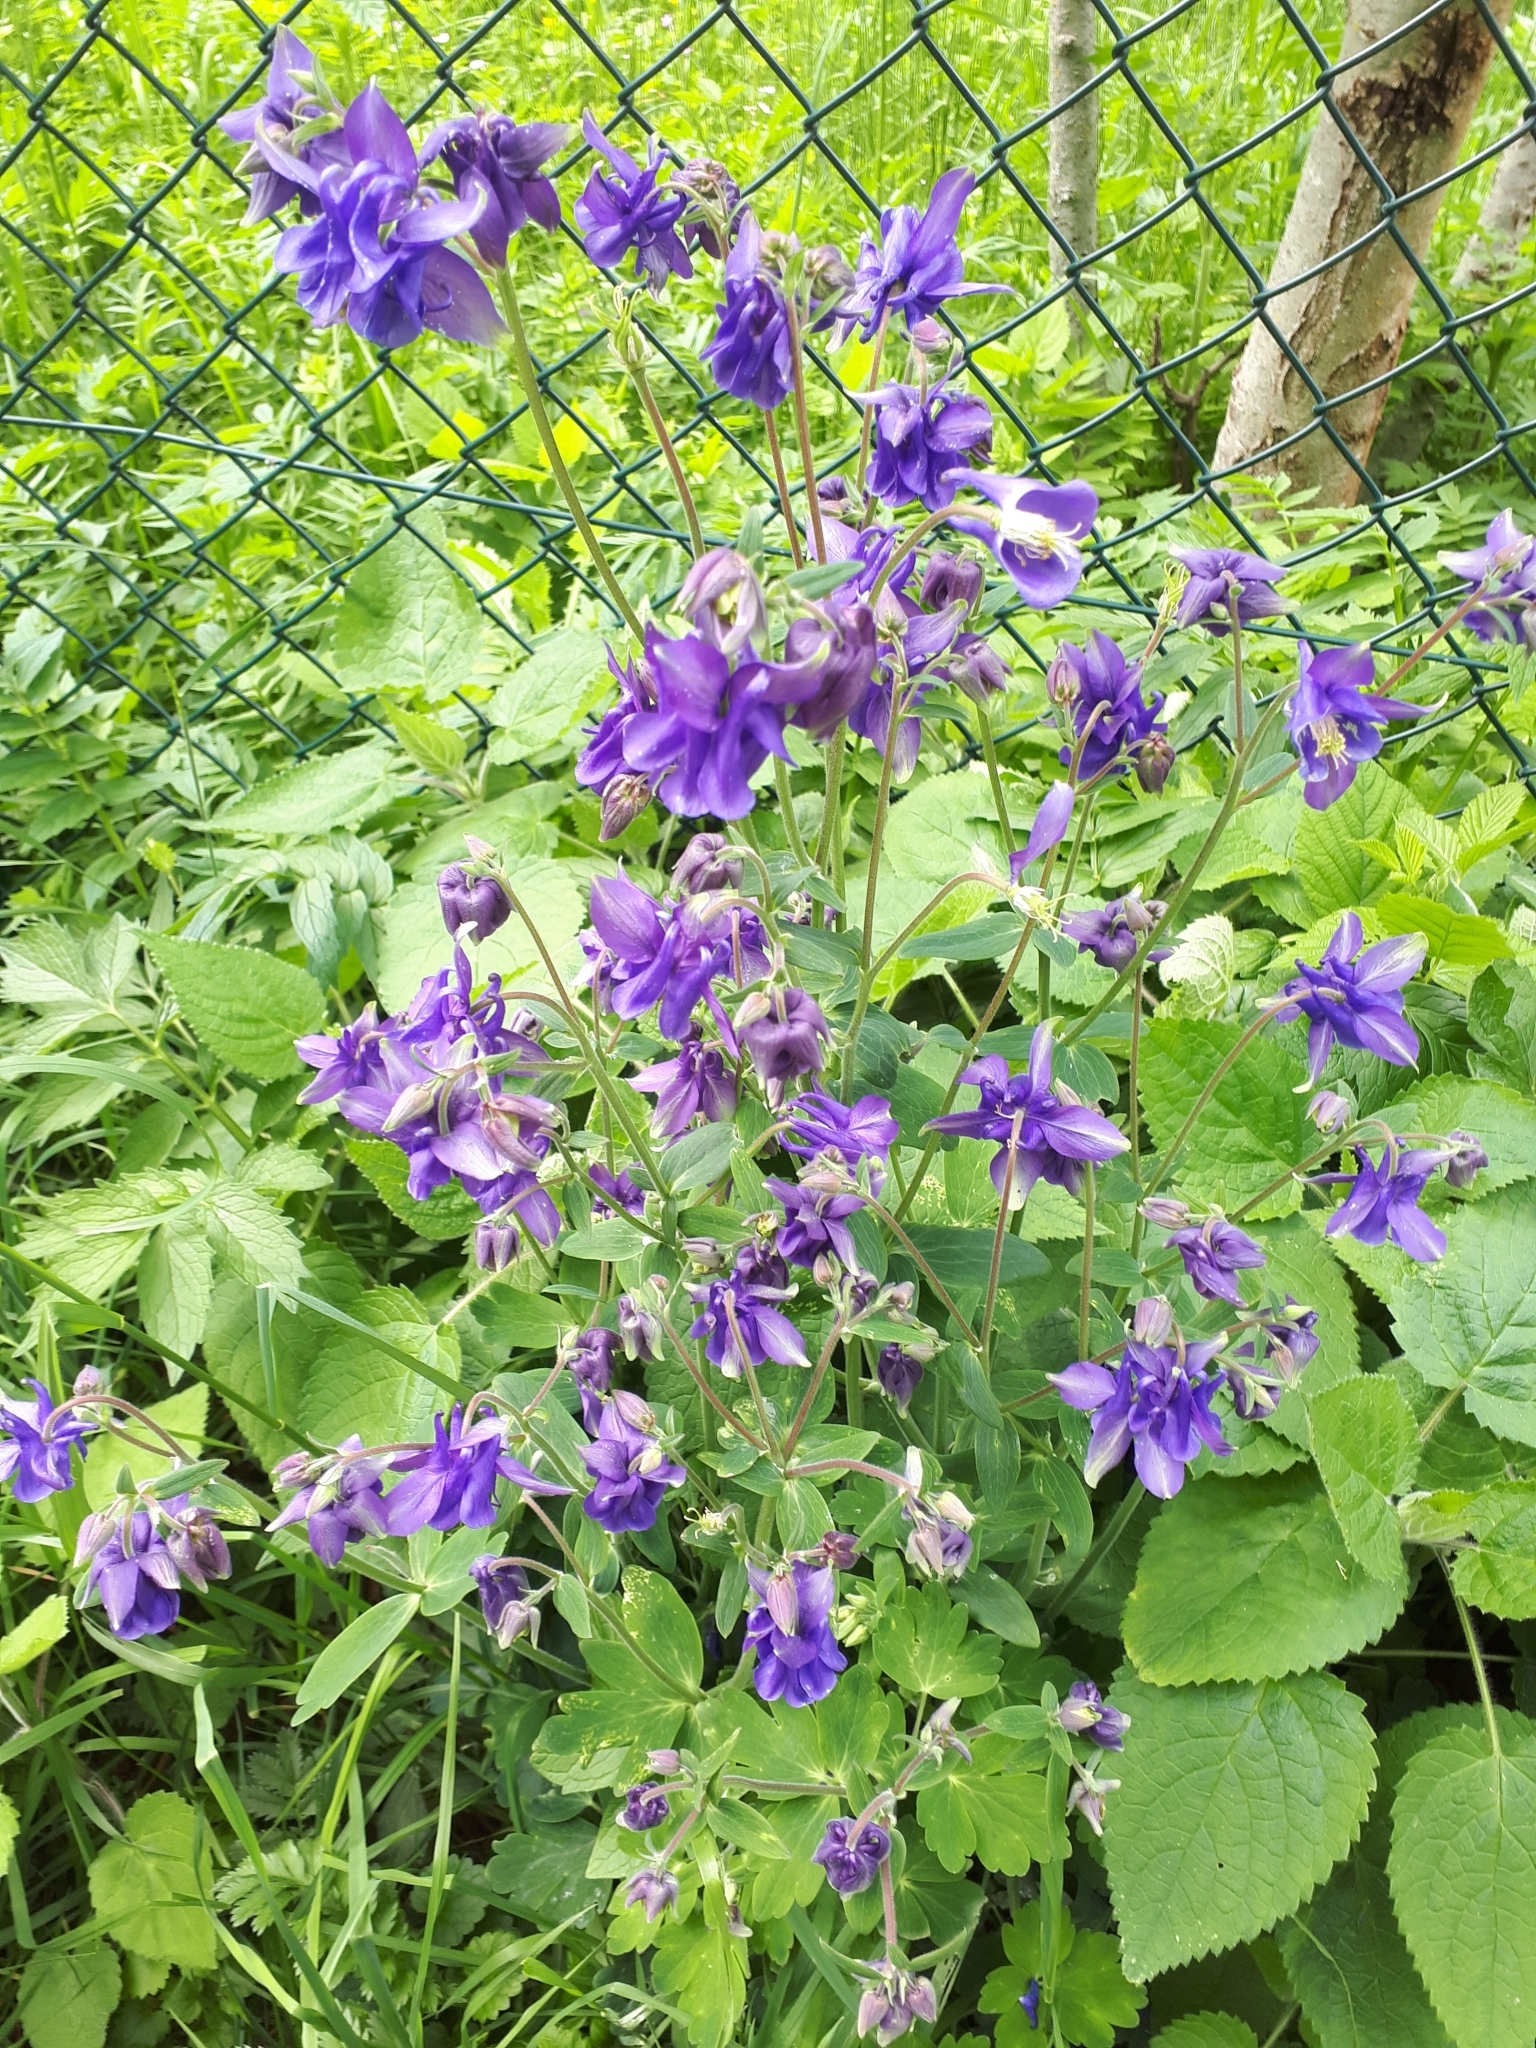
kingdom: Plantae
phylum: Tracheophyta
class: Magnoliopsida
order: Ranunculales
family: Ranunculaceae
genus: Aquilegia
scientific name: Aquilegia vulgaris
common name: Columbine
